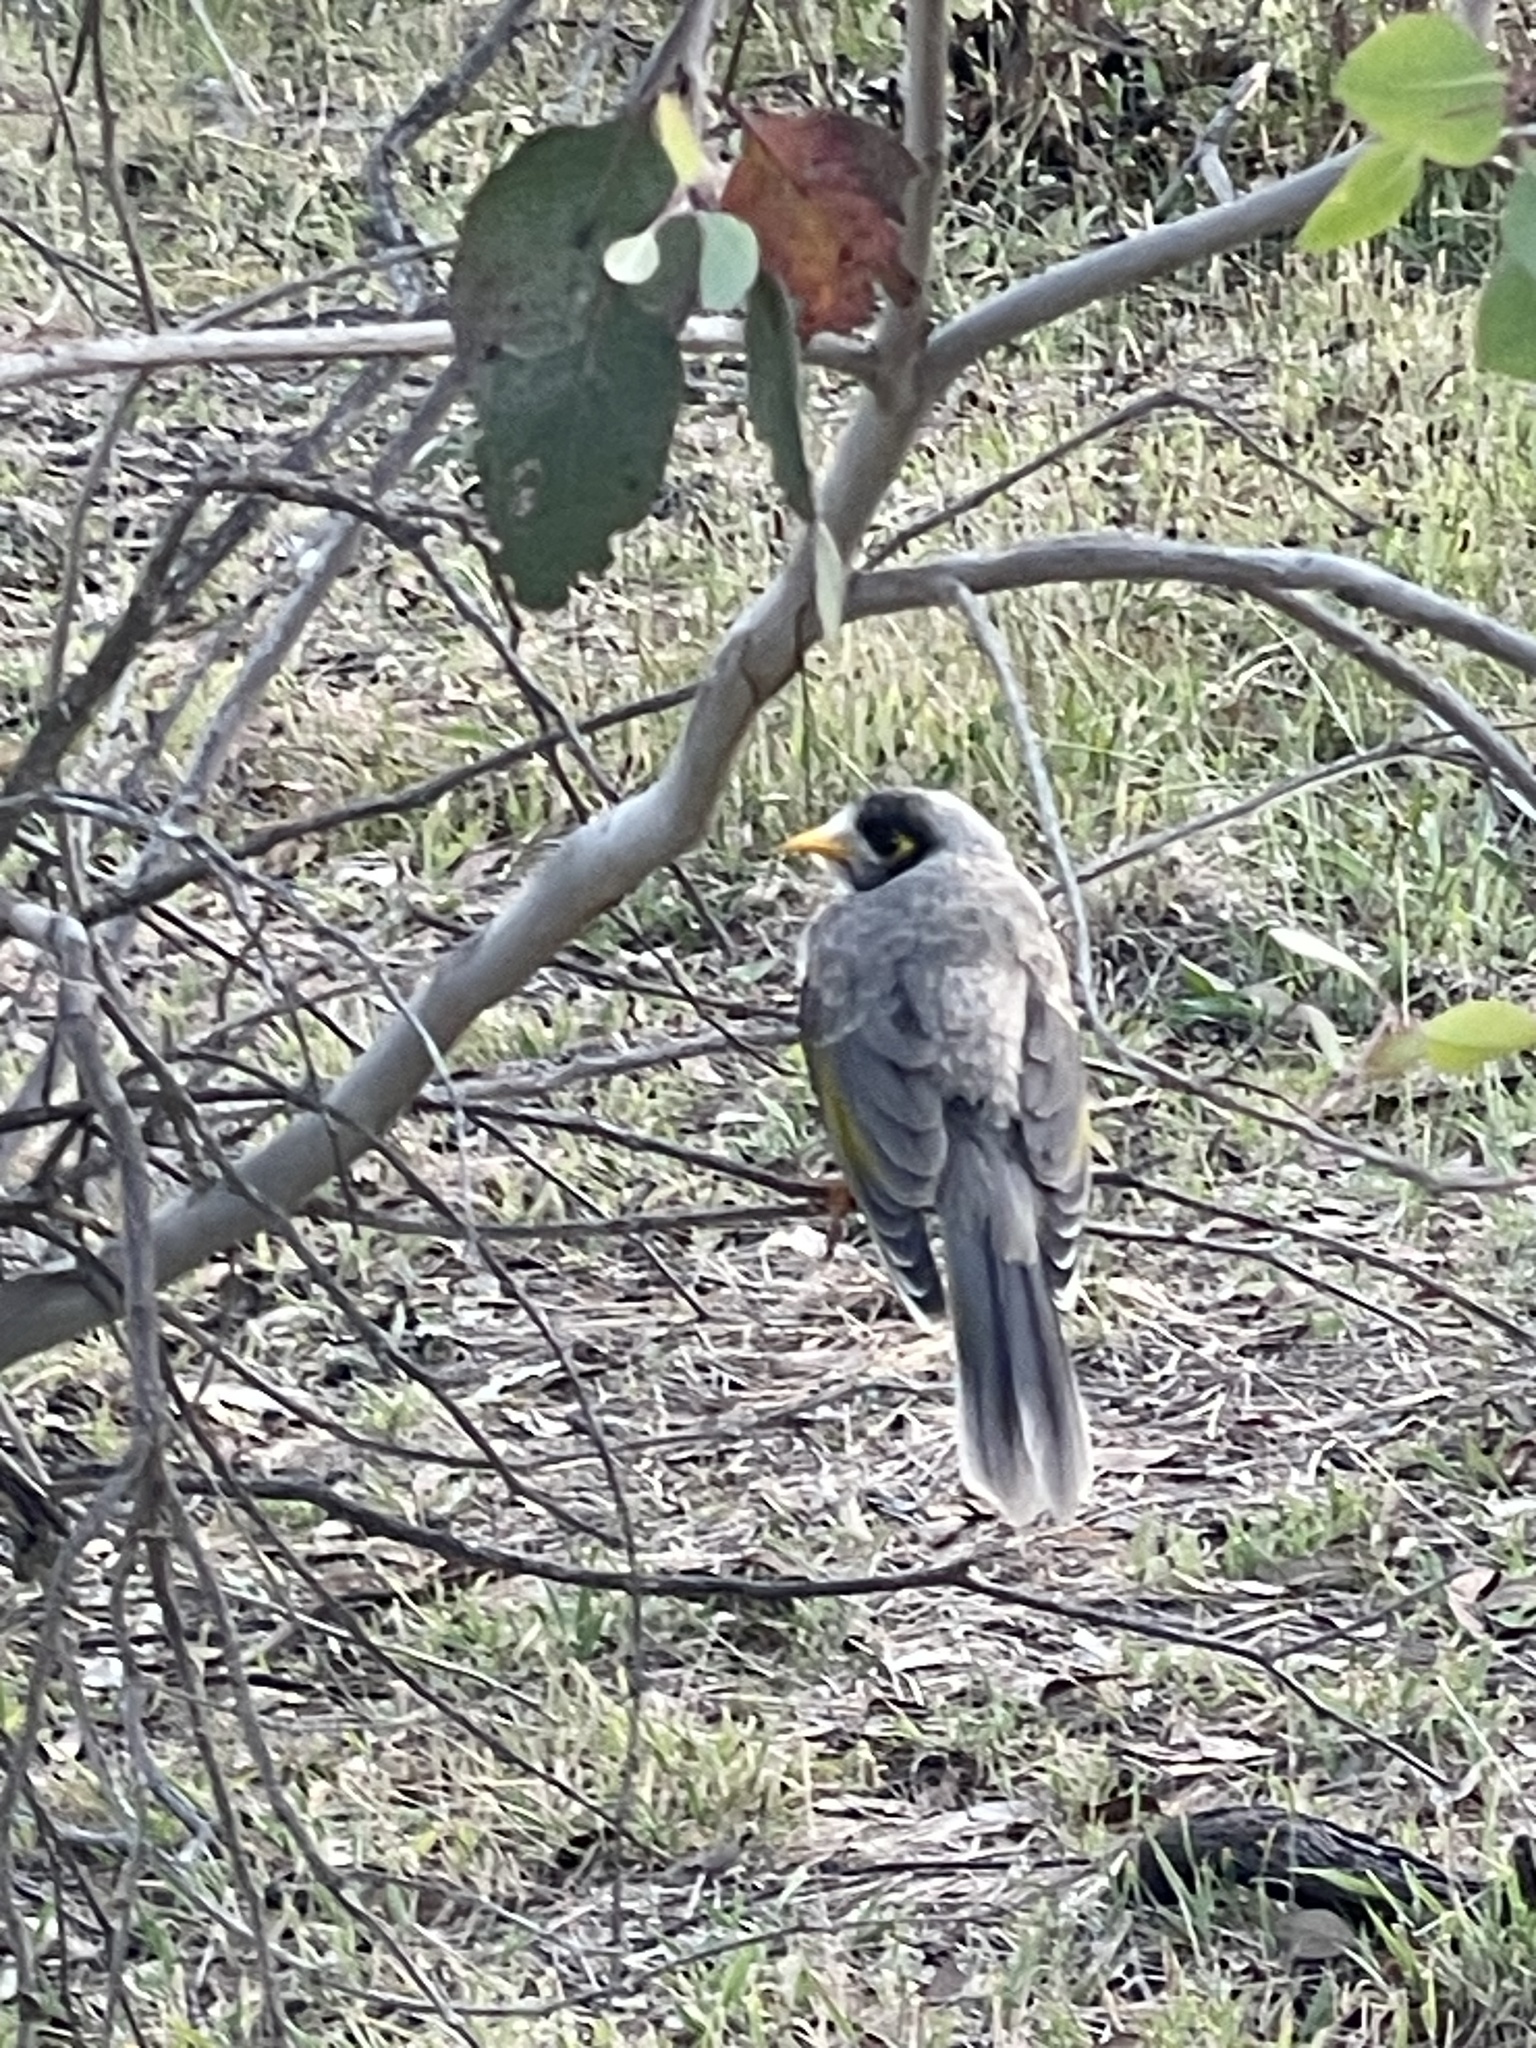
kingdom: Animalia
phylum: Chordata
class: Aves
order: Passeriformes
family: Meliphagidae
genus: Manorina
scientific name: Manorina melanocephala
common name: Noisy miner
